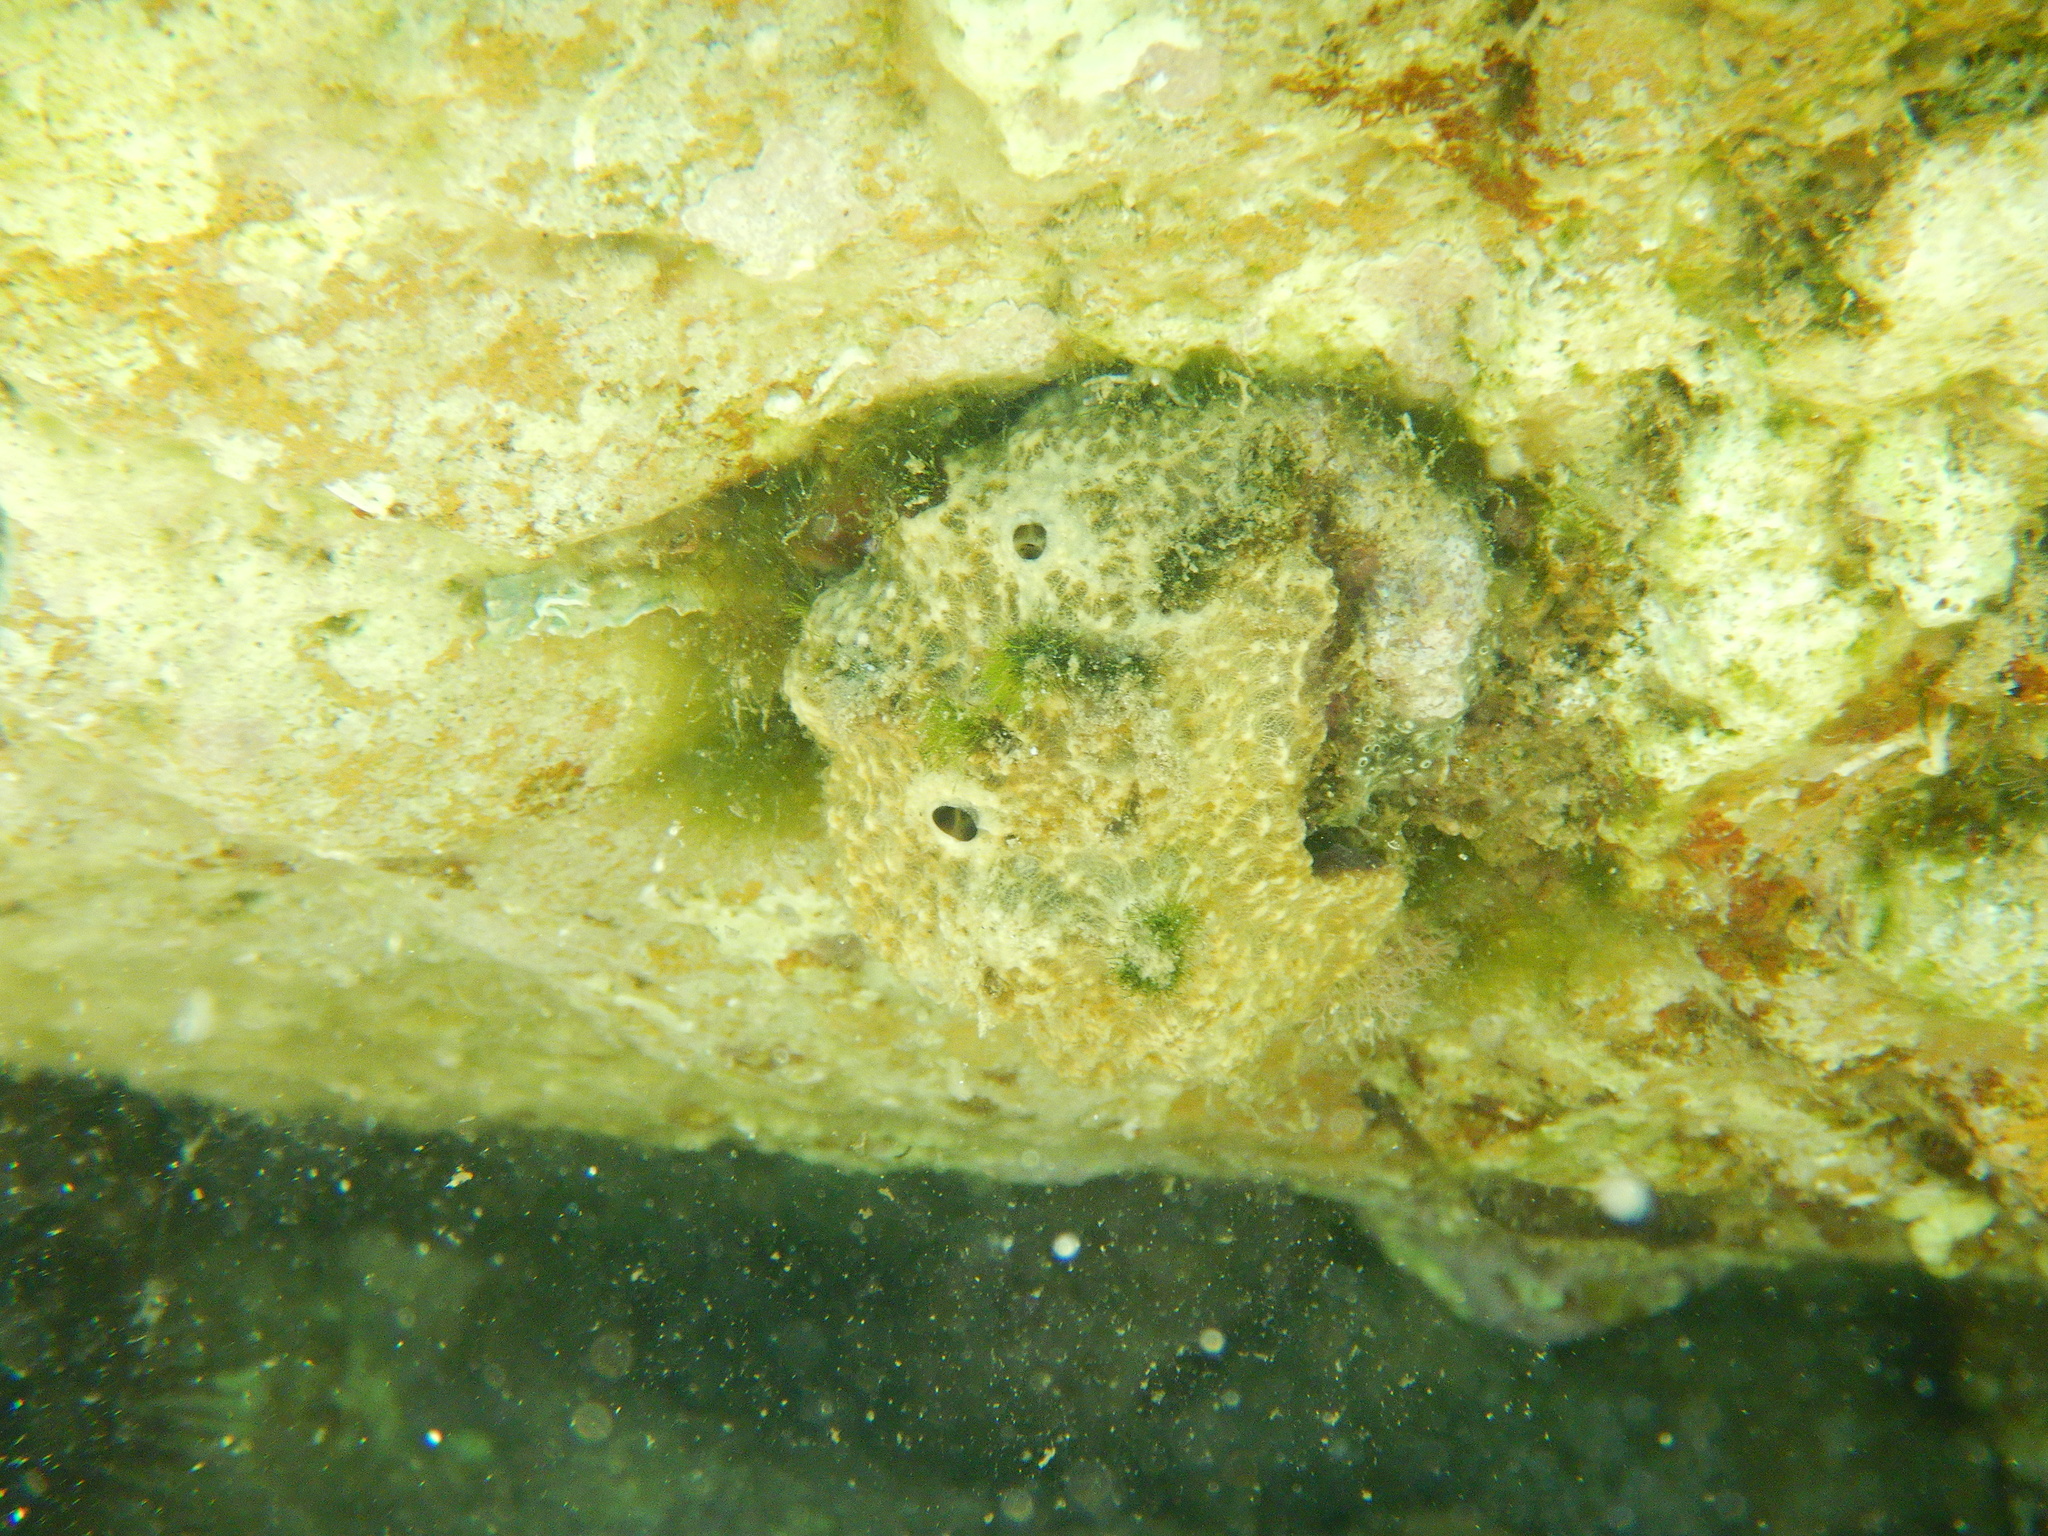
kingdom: Animalia
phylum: Porifera
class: Demospongiae
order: Dictyoceratida
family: Irciniidae
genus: Sarcotragus
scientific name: Sarcotragus fasciculatus
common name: Stinker sponge
